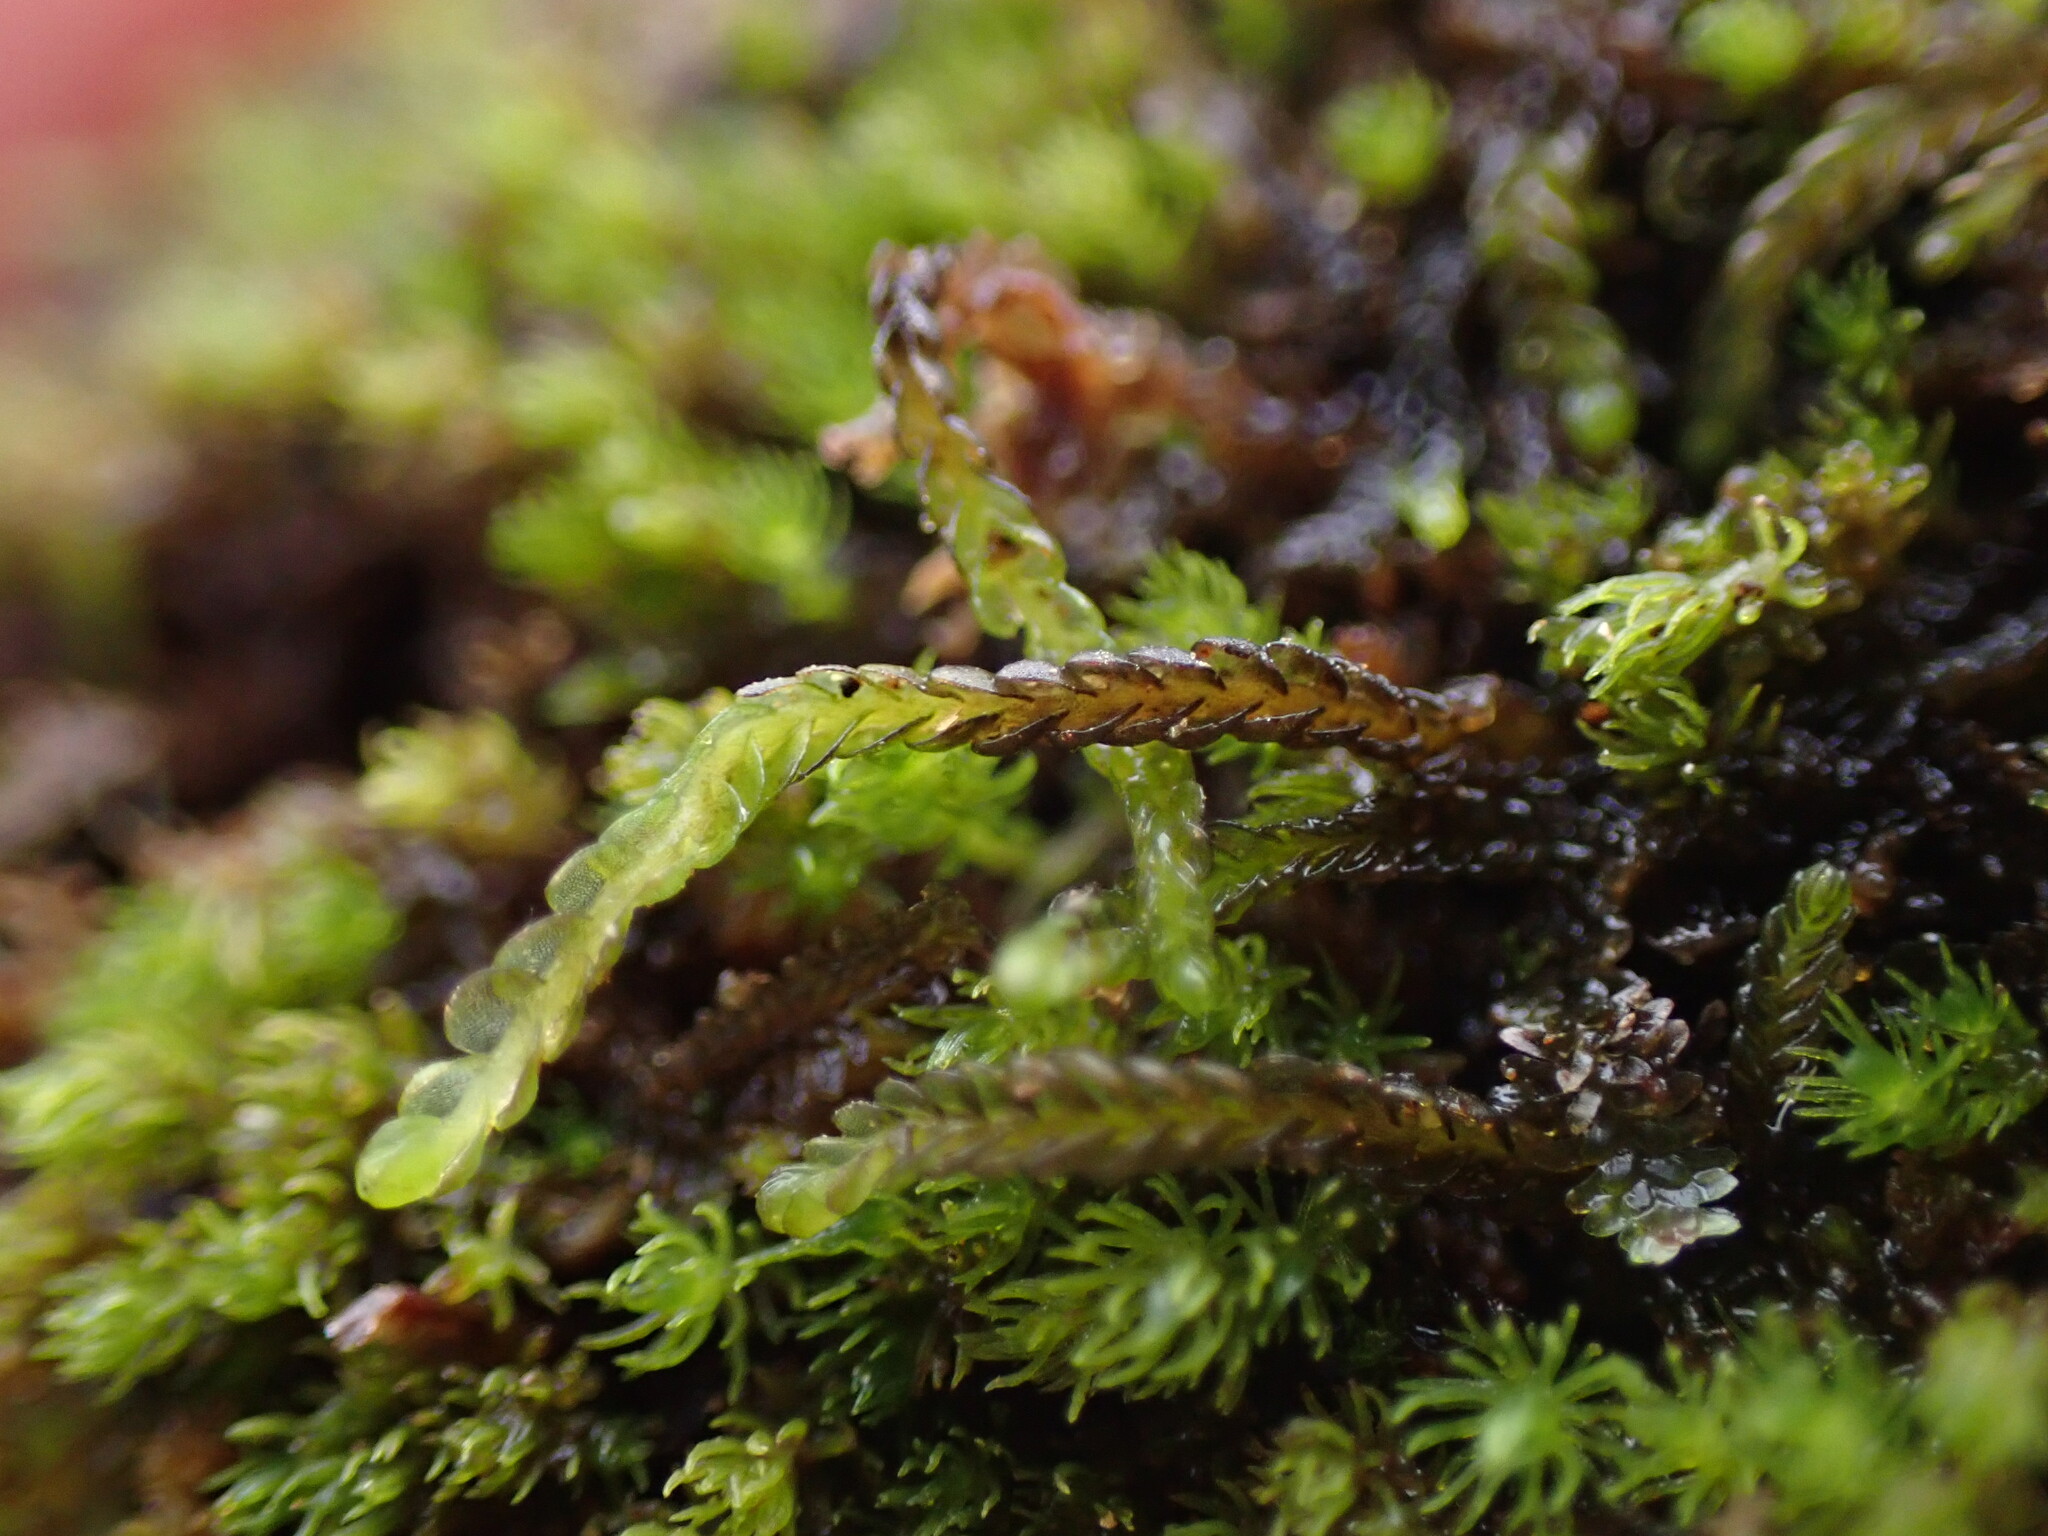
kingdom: Plantae
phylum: Marchantiophyta
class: Jungermanniopsida
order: Jungermanniales
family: Cephaloziaceae
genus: Odontoschisma
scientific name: Odontoschisma elongatum
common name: Brown flapwort
